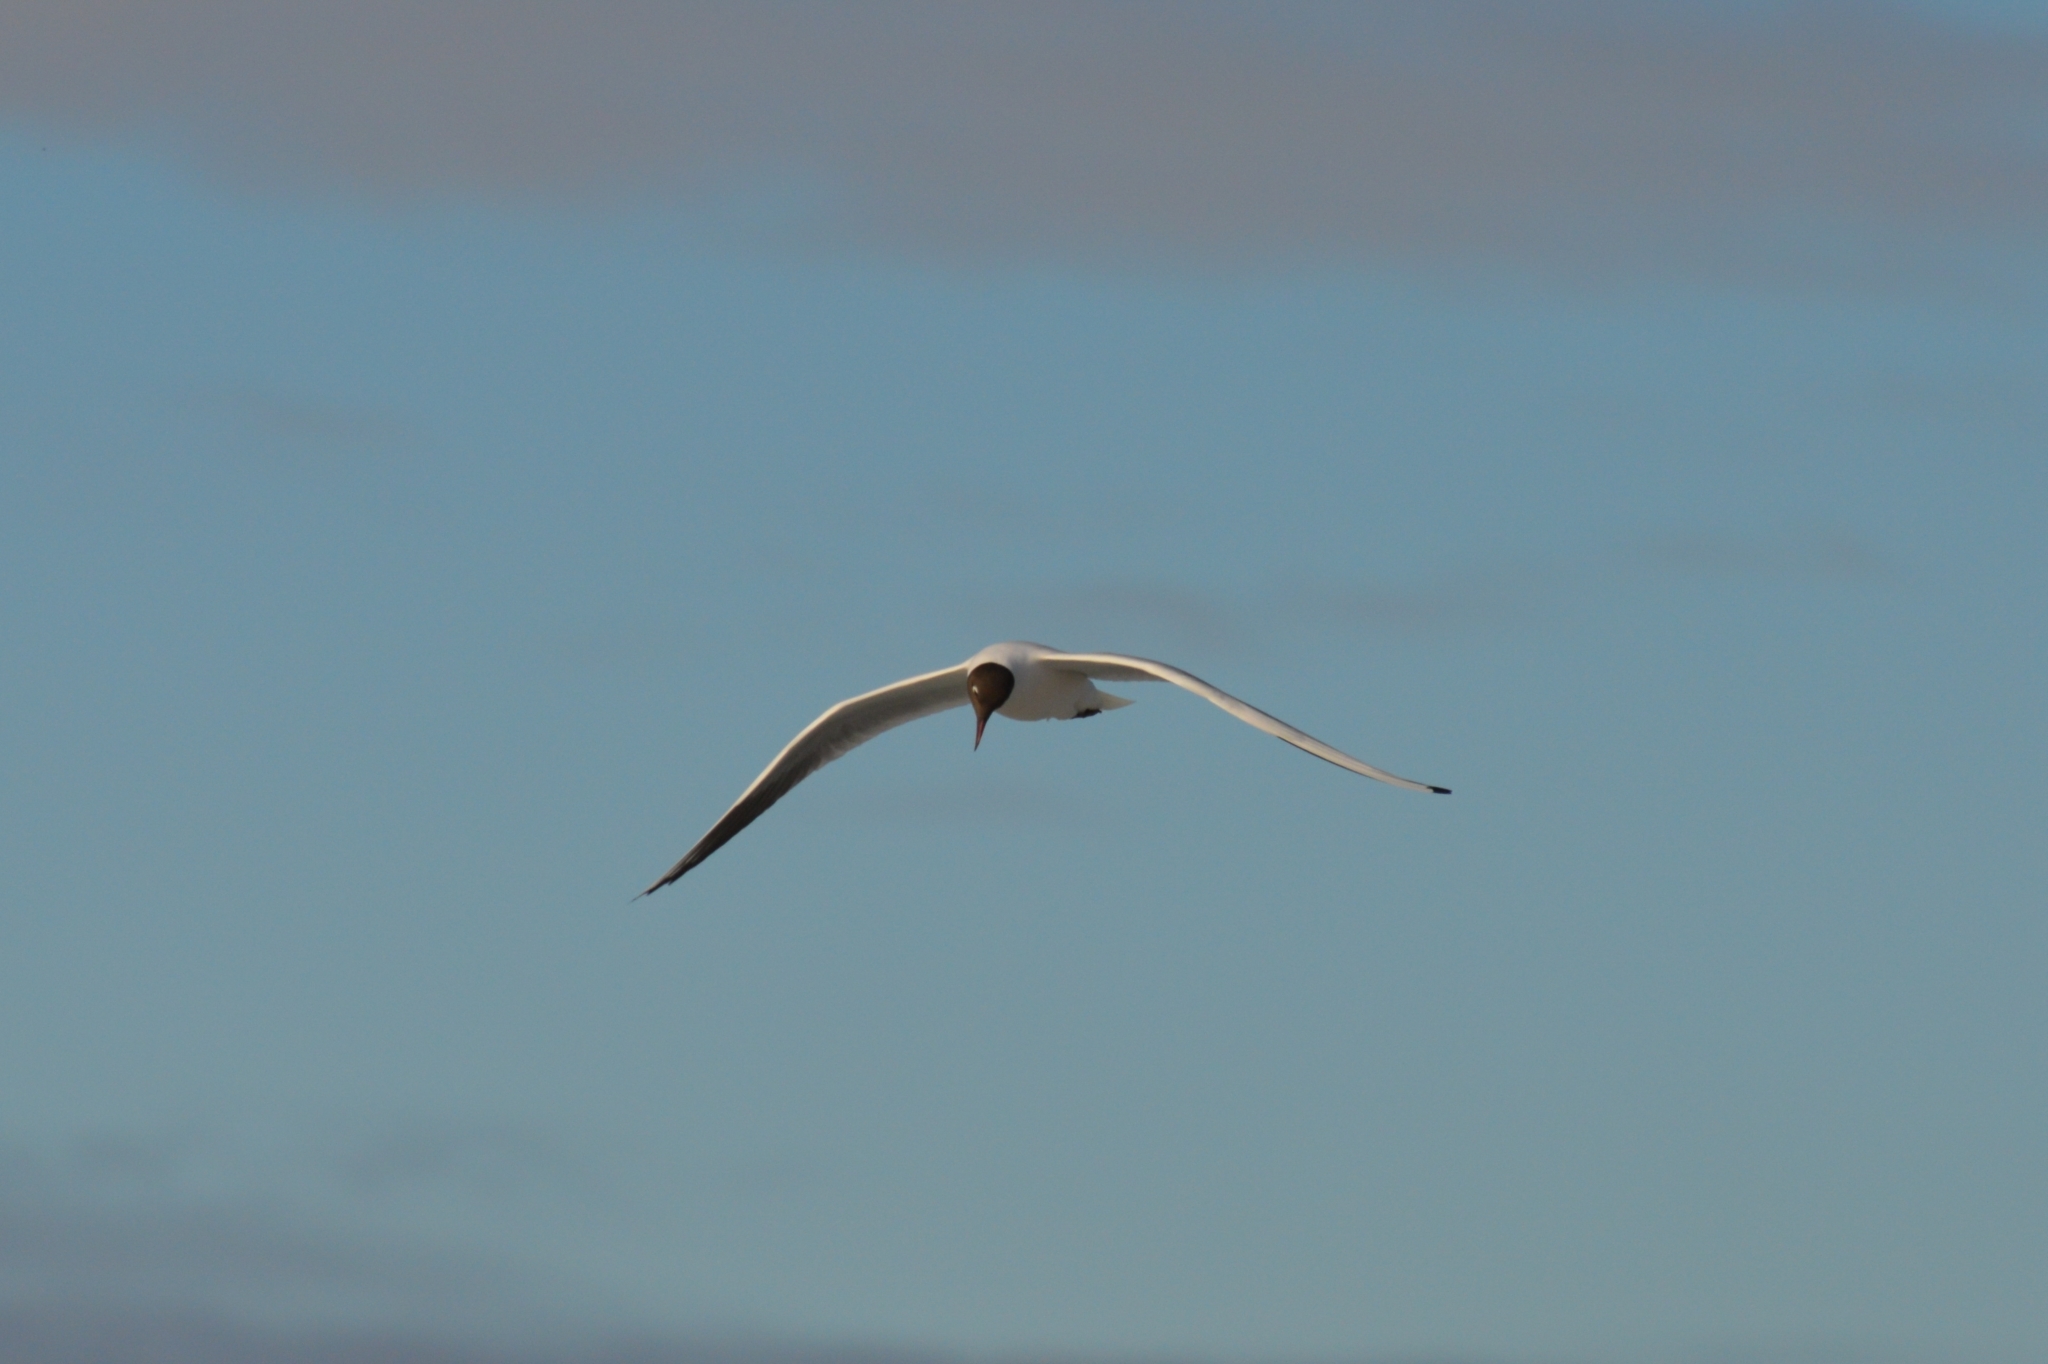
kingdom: Animalia
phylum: Chordata
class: Aves
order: Charadriiformes
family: Laridae
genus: Chroicocephalus
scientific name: Chroicocephalus ridibundus
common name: Black-headed gull
